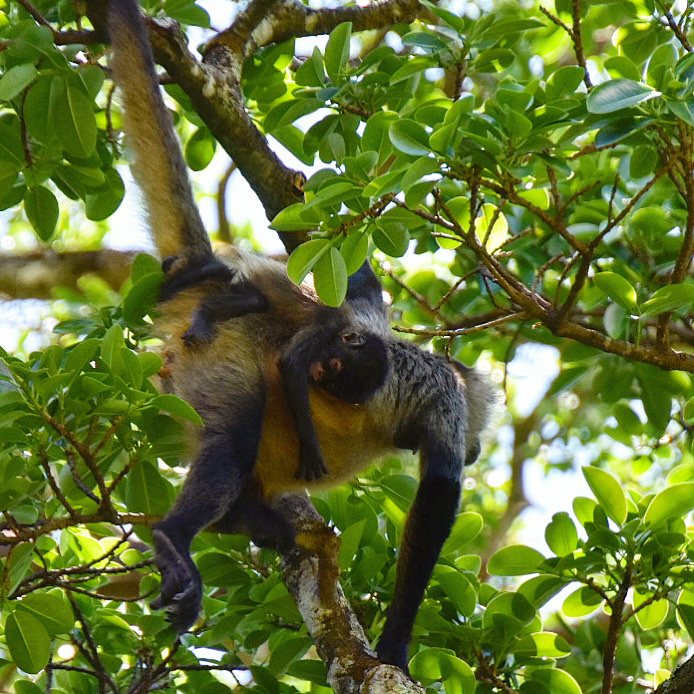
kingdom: Animalia
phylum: Chordata
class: Mammalia
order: Primates
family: Atelidae
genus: Ateles
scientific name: Ateles geoffroyi
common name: Black-handed spider monkey
